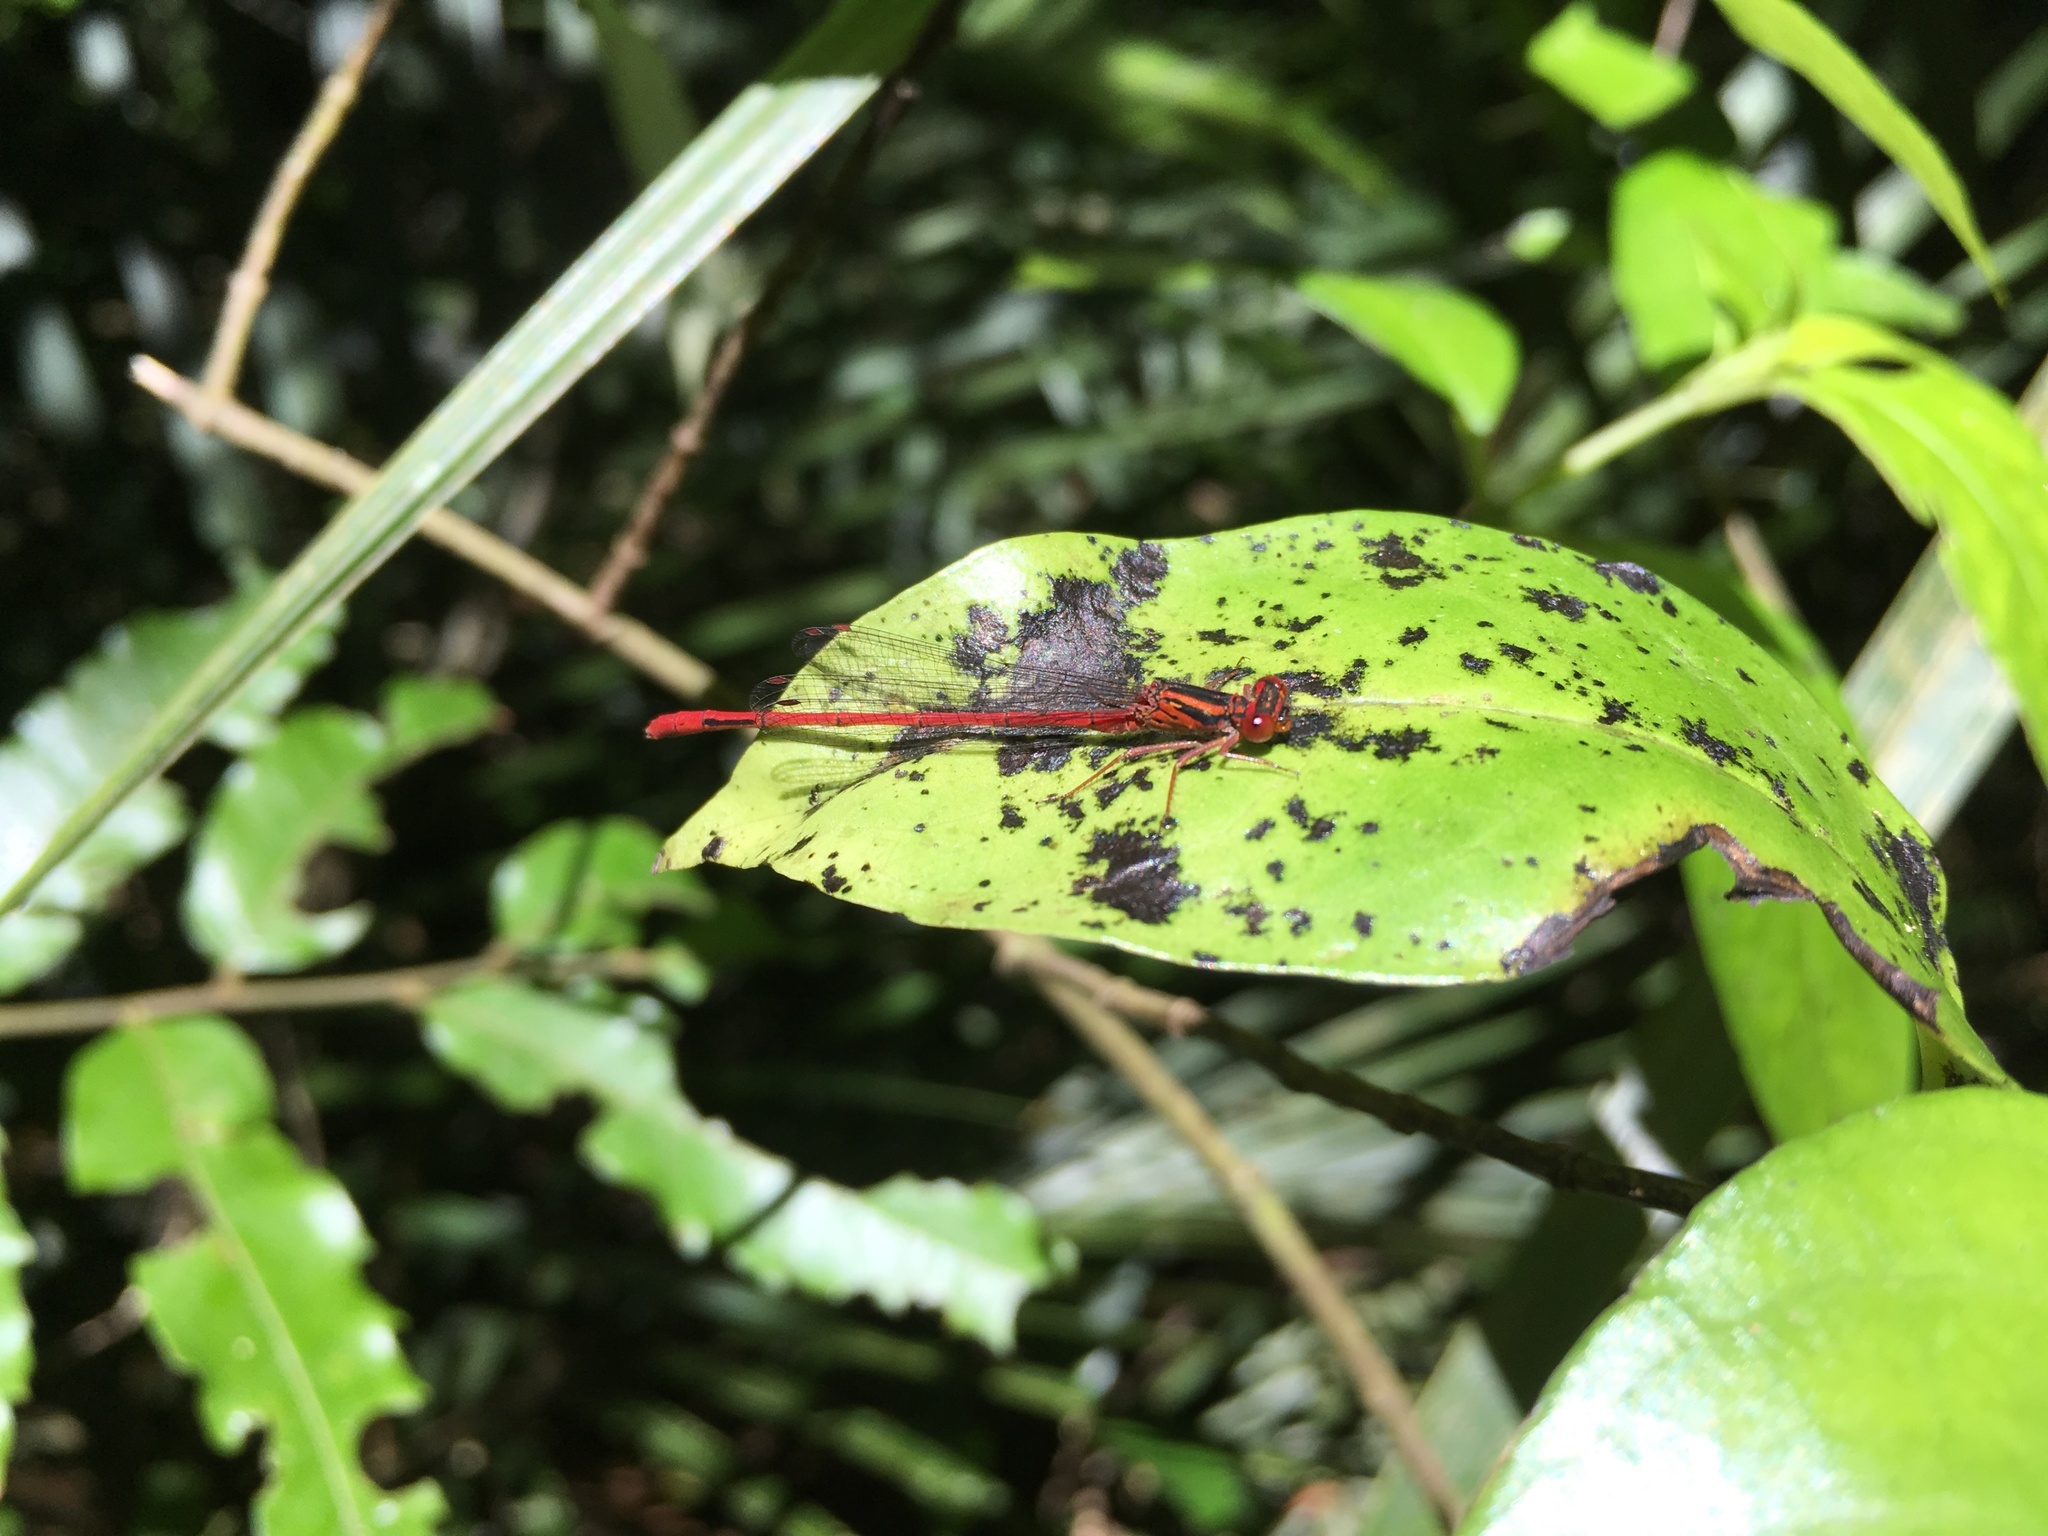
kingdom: Animalia
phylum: Arthropoda
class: Insecta
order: Odonata
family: Coenagrionidae
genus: Xanthocnemis
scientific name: Xanthocnemis zealandica
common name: Common redcoat damselfly
